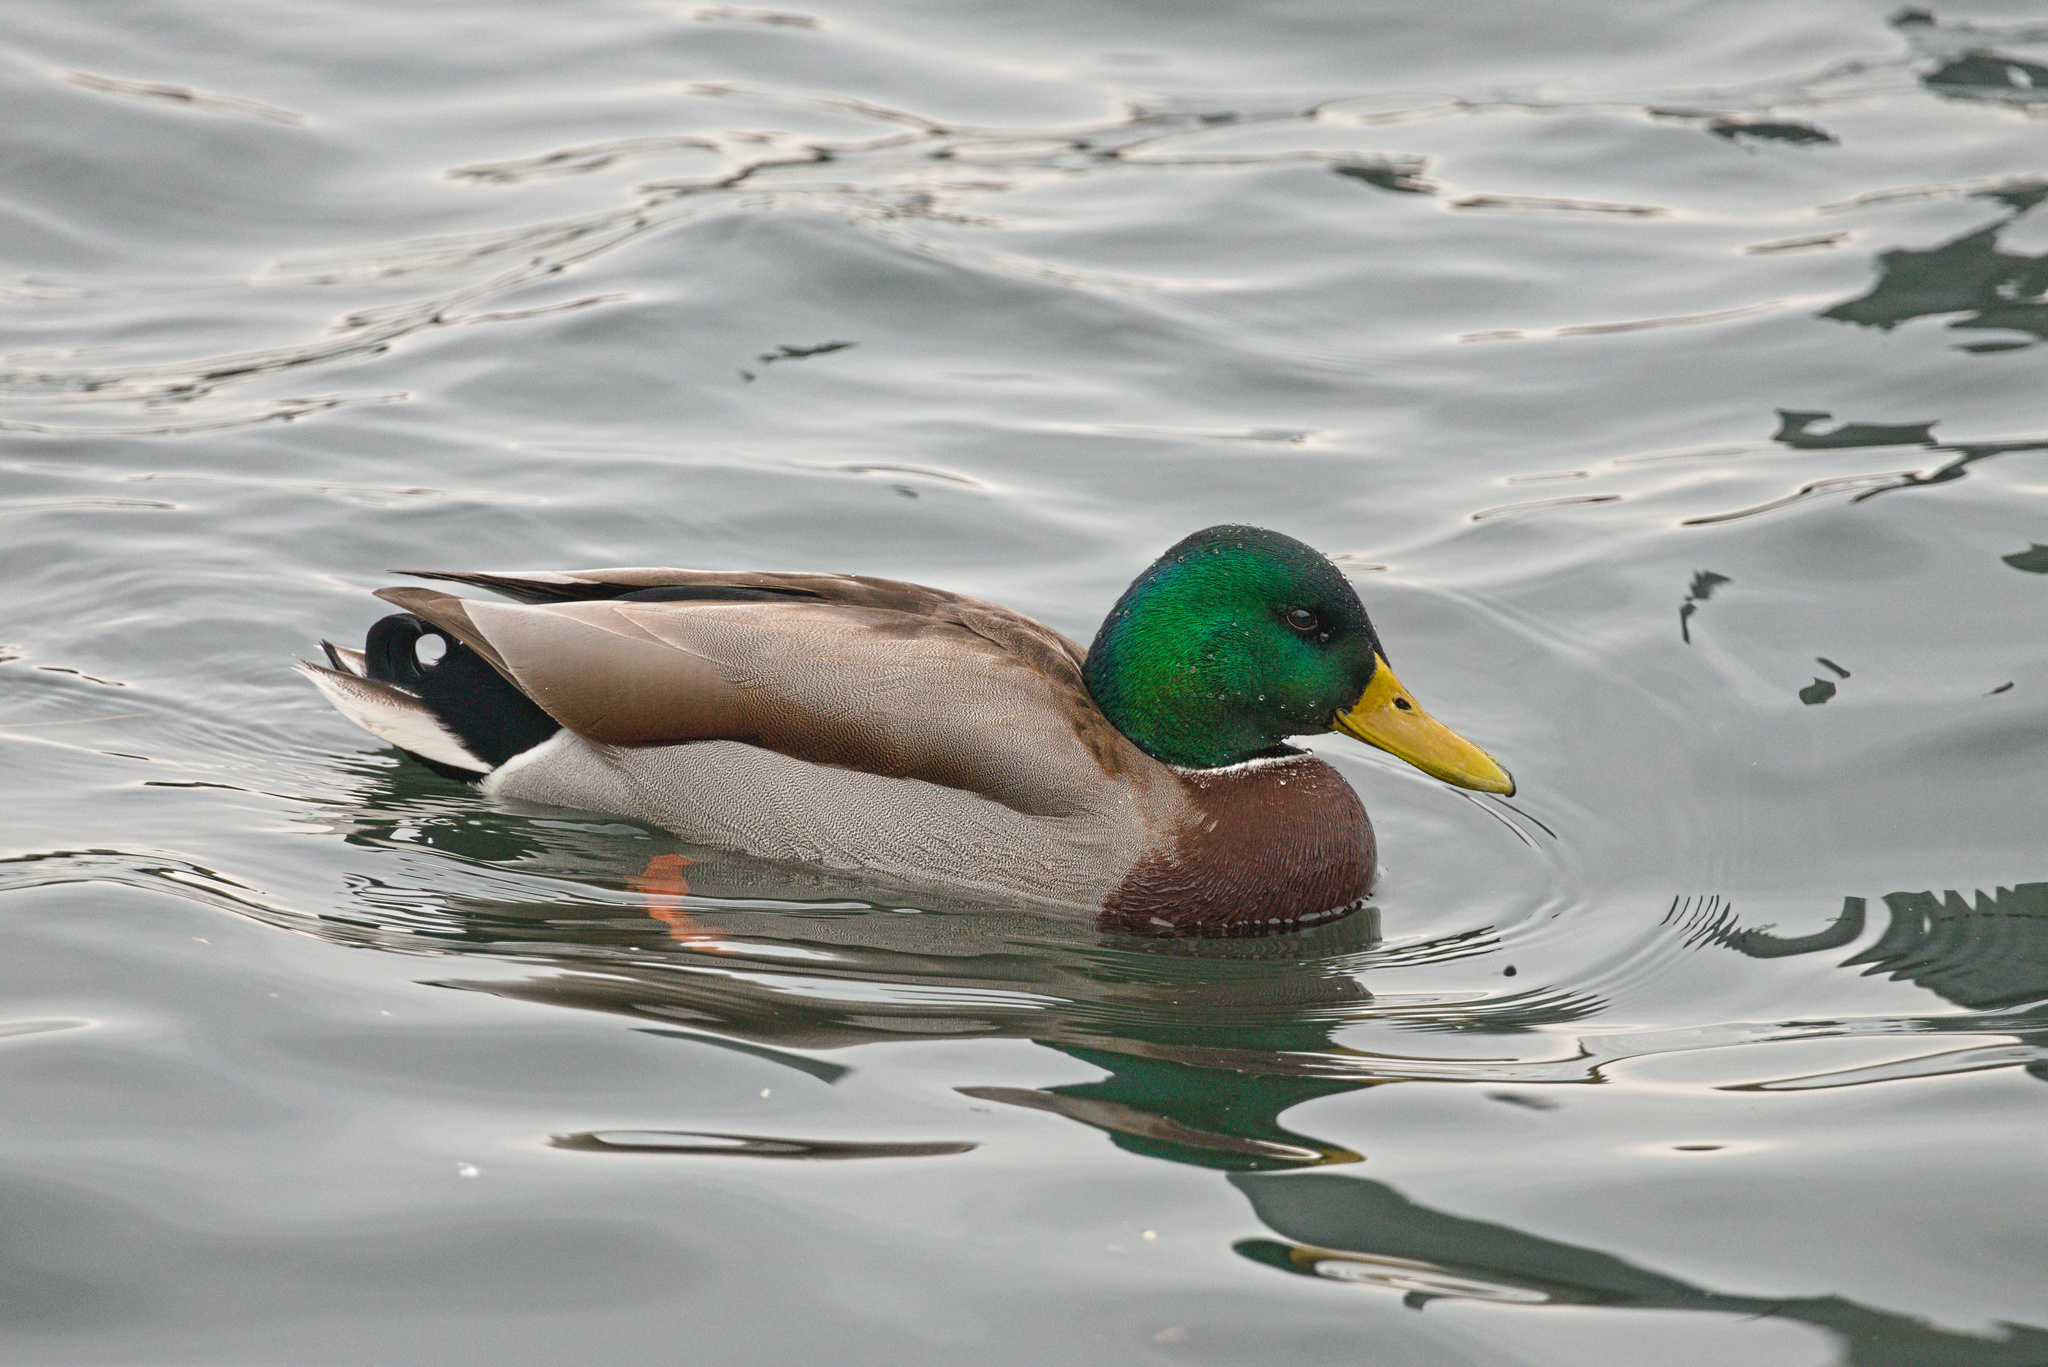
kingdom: Animalia
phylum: Chordata
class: Aves
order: Anseriformes
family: Anatidae
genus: Anas
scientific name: Anas platyrhynchos
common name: Mallard
